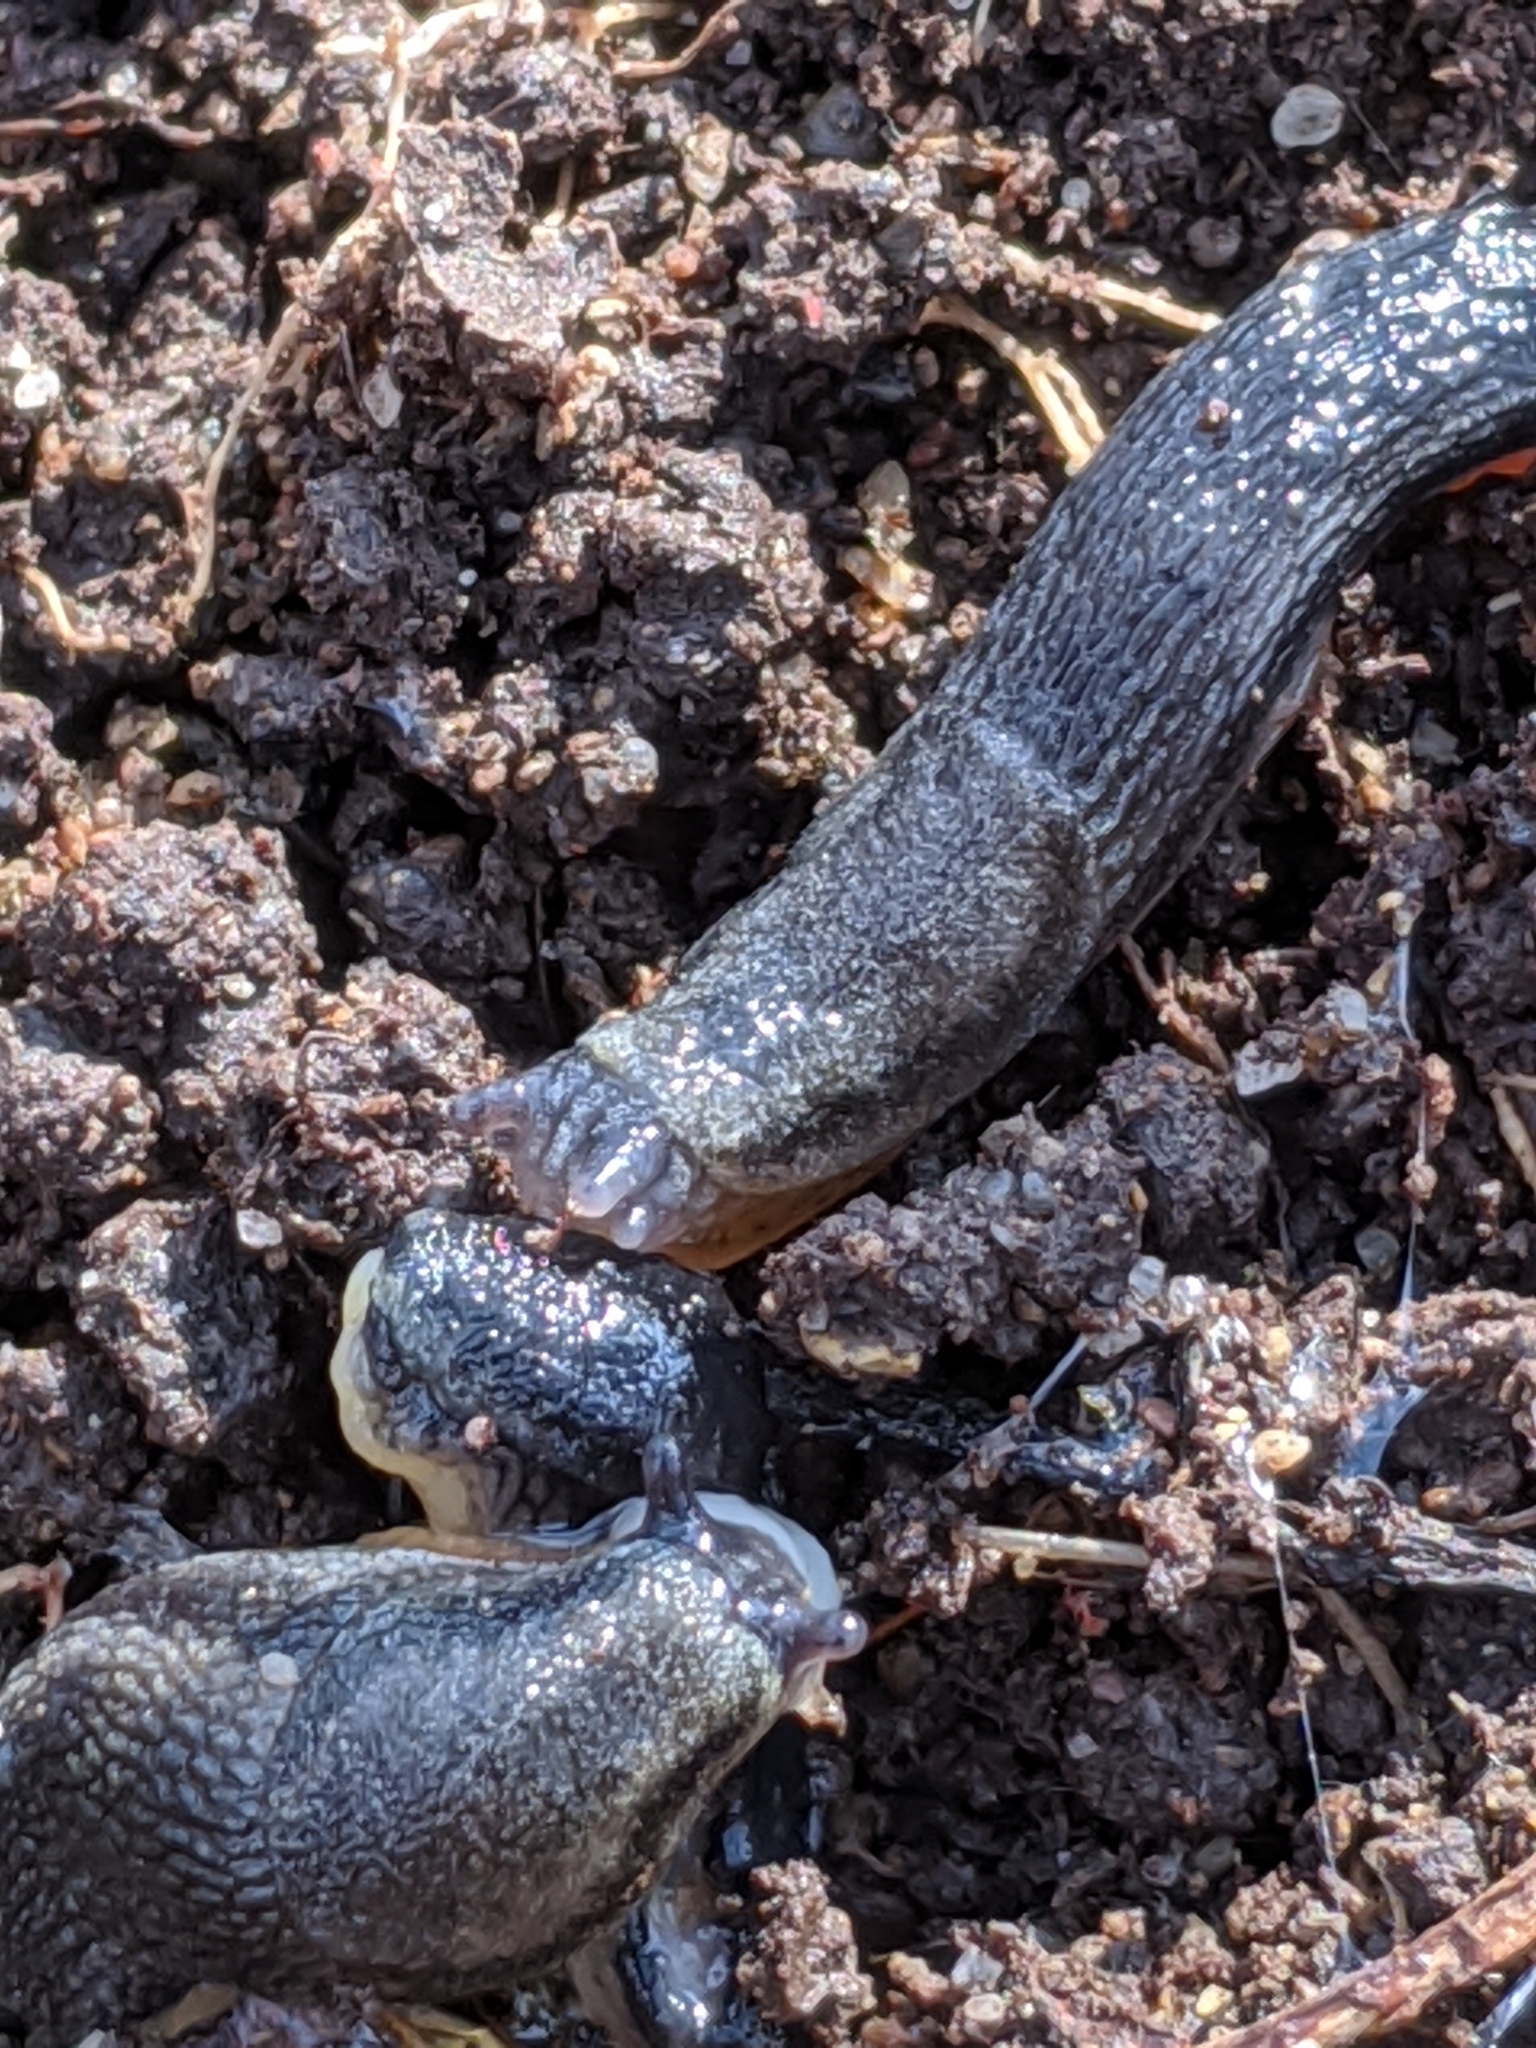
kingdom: Animalia
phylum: Mollusca
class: Gastropoda
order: Stylommatophora
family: Arionidae
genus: Kobeltia
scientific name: Kobeltia
